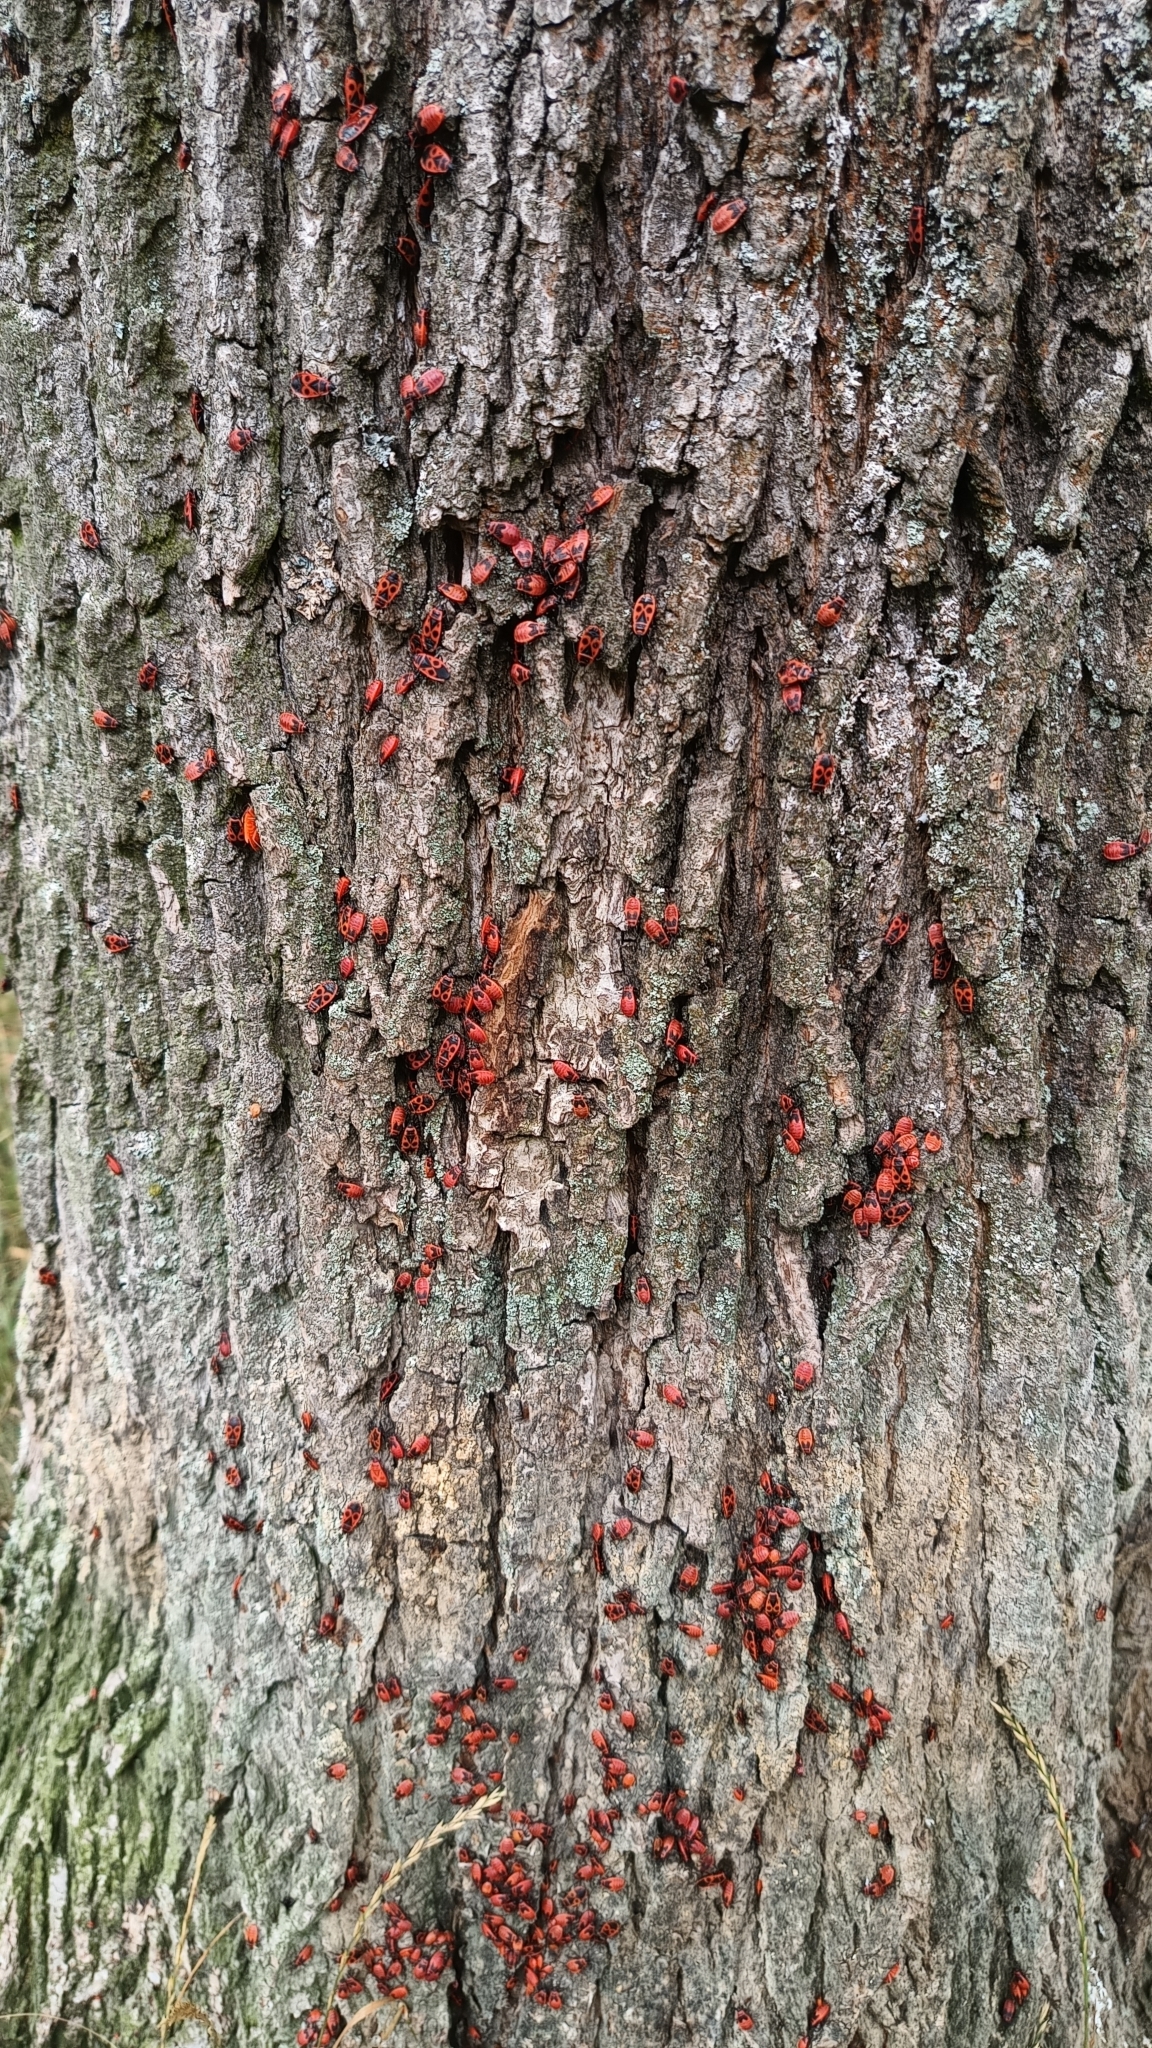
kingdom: Animalia
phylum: Arthropoda
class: Insecta
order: Hemiptera
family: Pyrrhocoridae
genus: Pyrrhocoris
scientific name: Pyrrhocoris apterus
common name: Firebug
